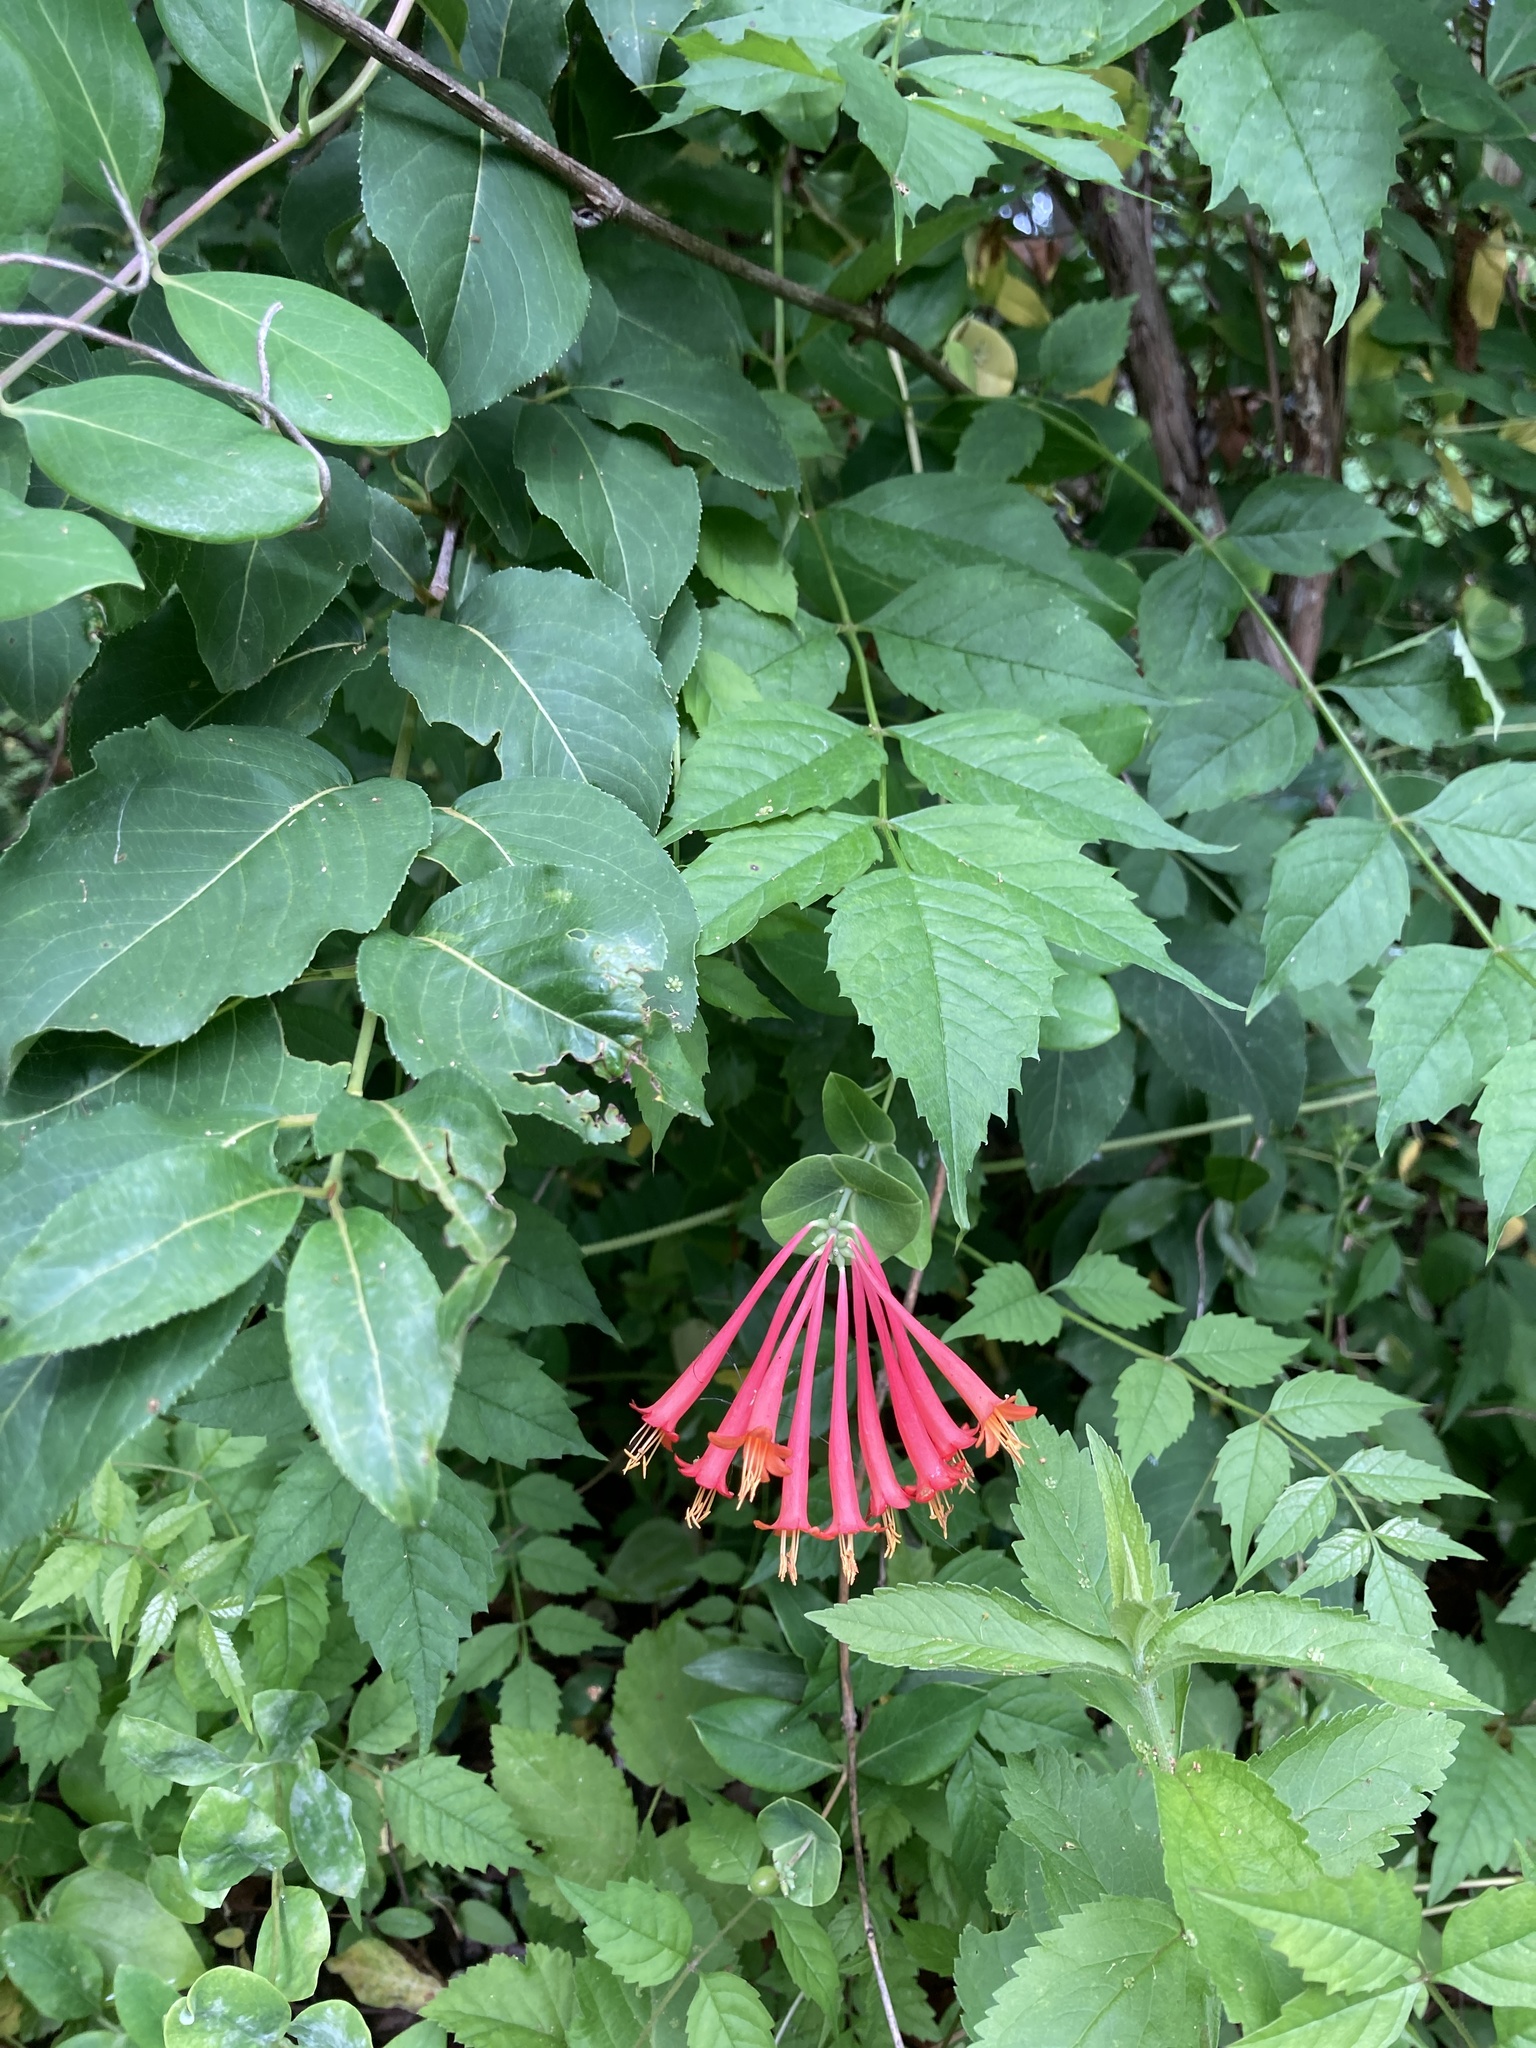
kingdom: Plantae
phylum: Tracheophyta
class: Magnoliopsida
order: Dipsacales
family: Caprifoliaceae
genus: Lonicera
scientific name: Lonicera sempervirens
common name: Coral honeysuckle
